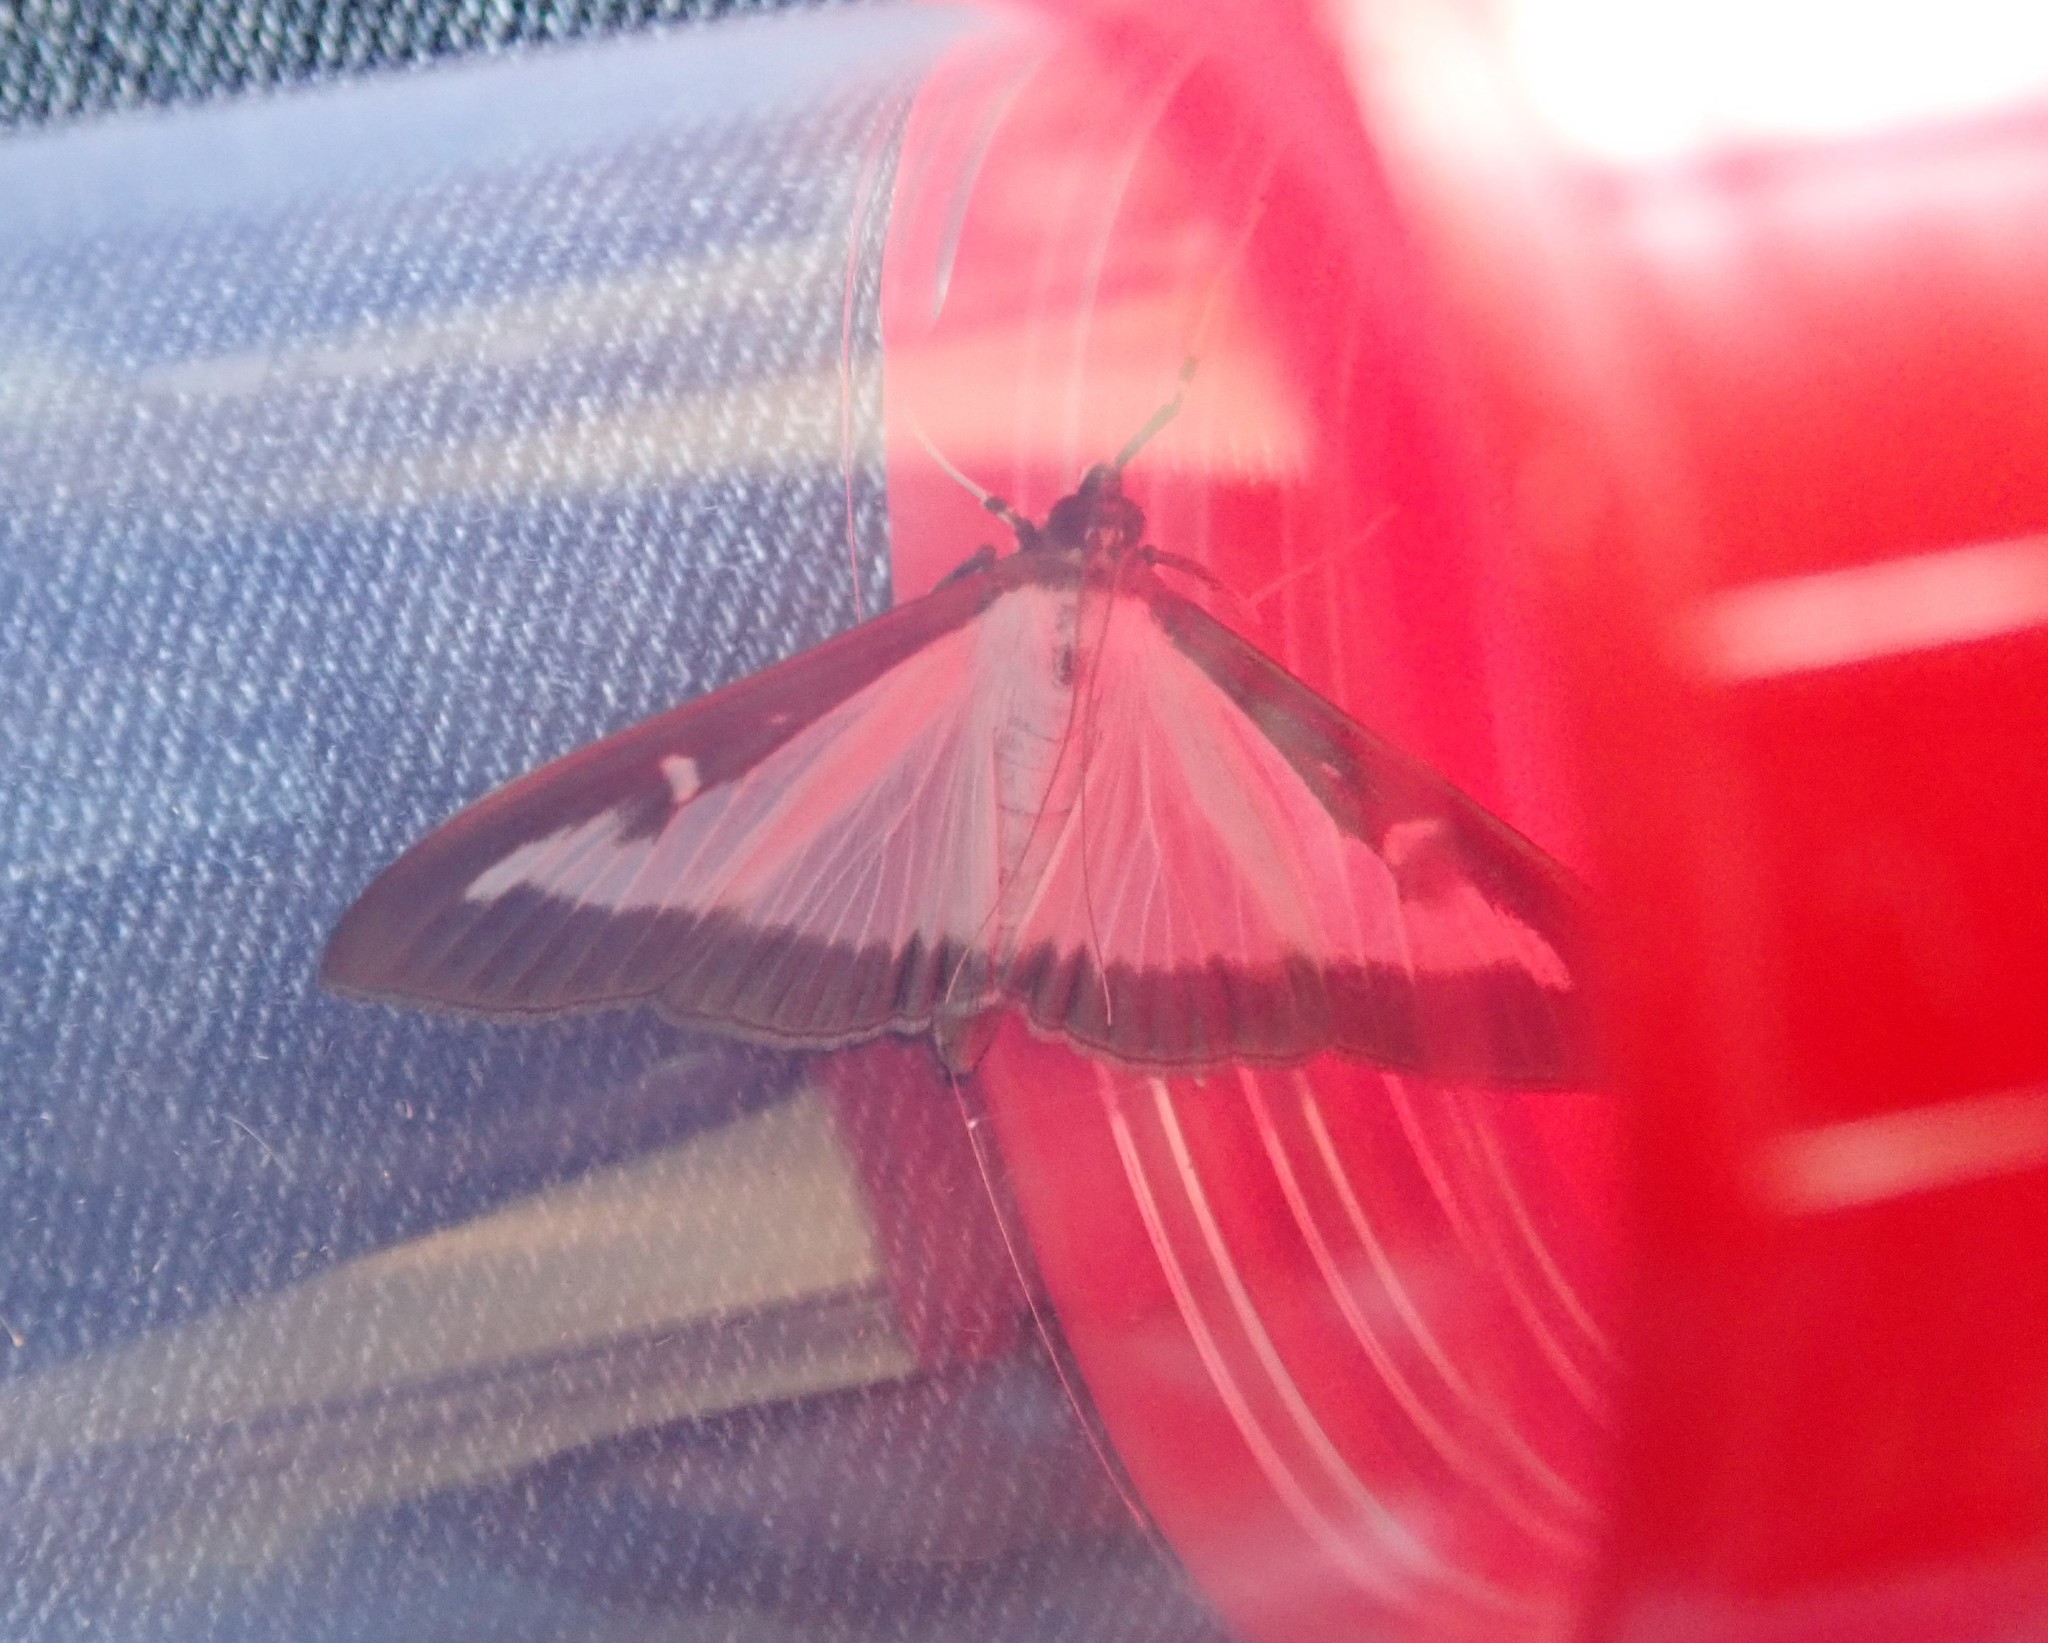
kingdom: Animalia
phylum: Arthropoda
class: Insecta
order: Lepidoptera
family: Crambidae
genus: Cydalima
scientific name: Cydalima perspectalis
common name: Box tree moth
